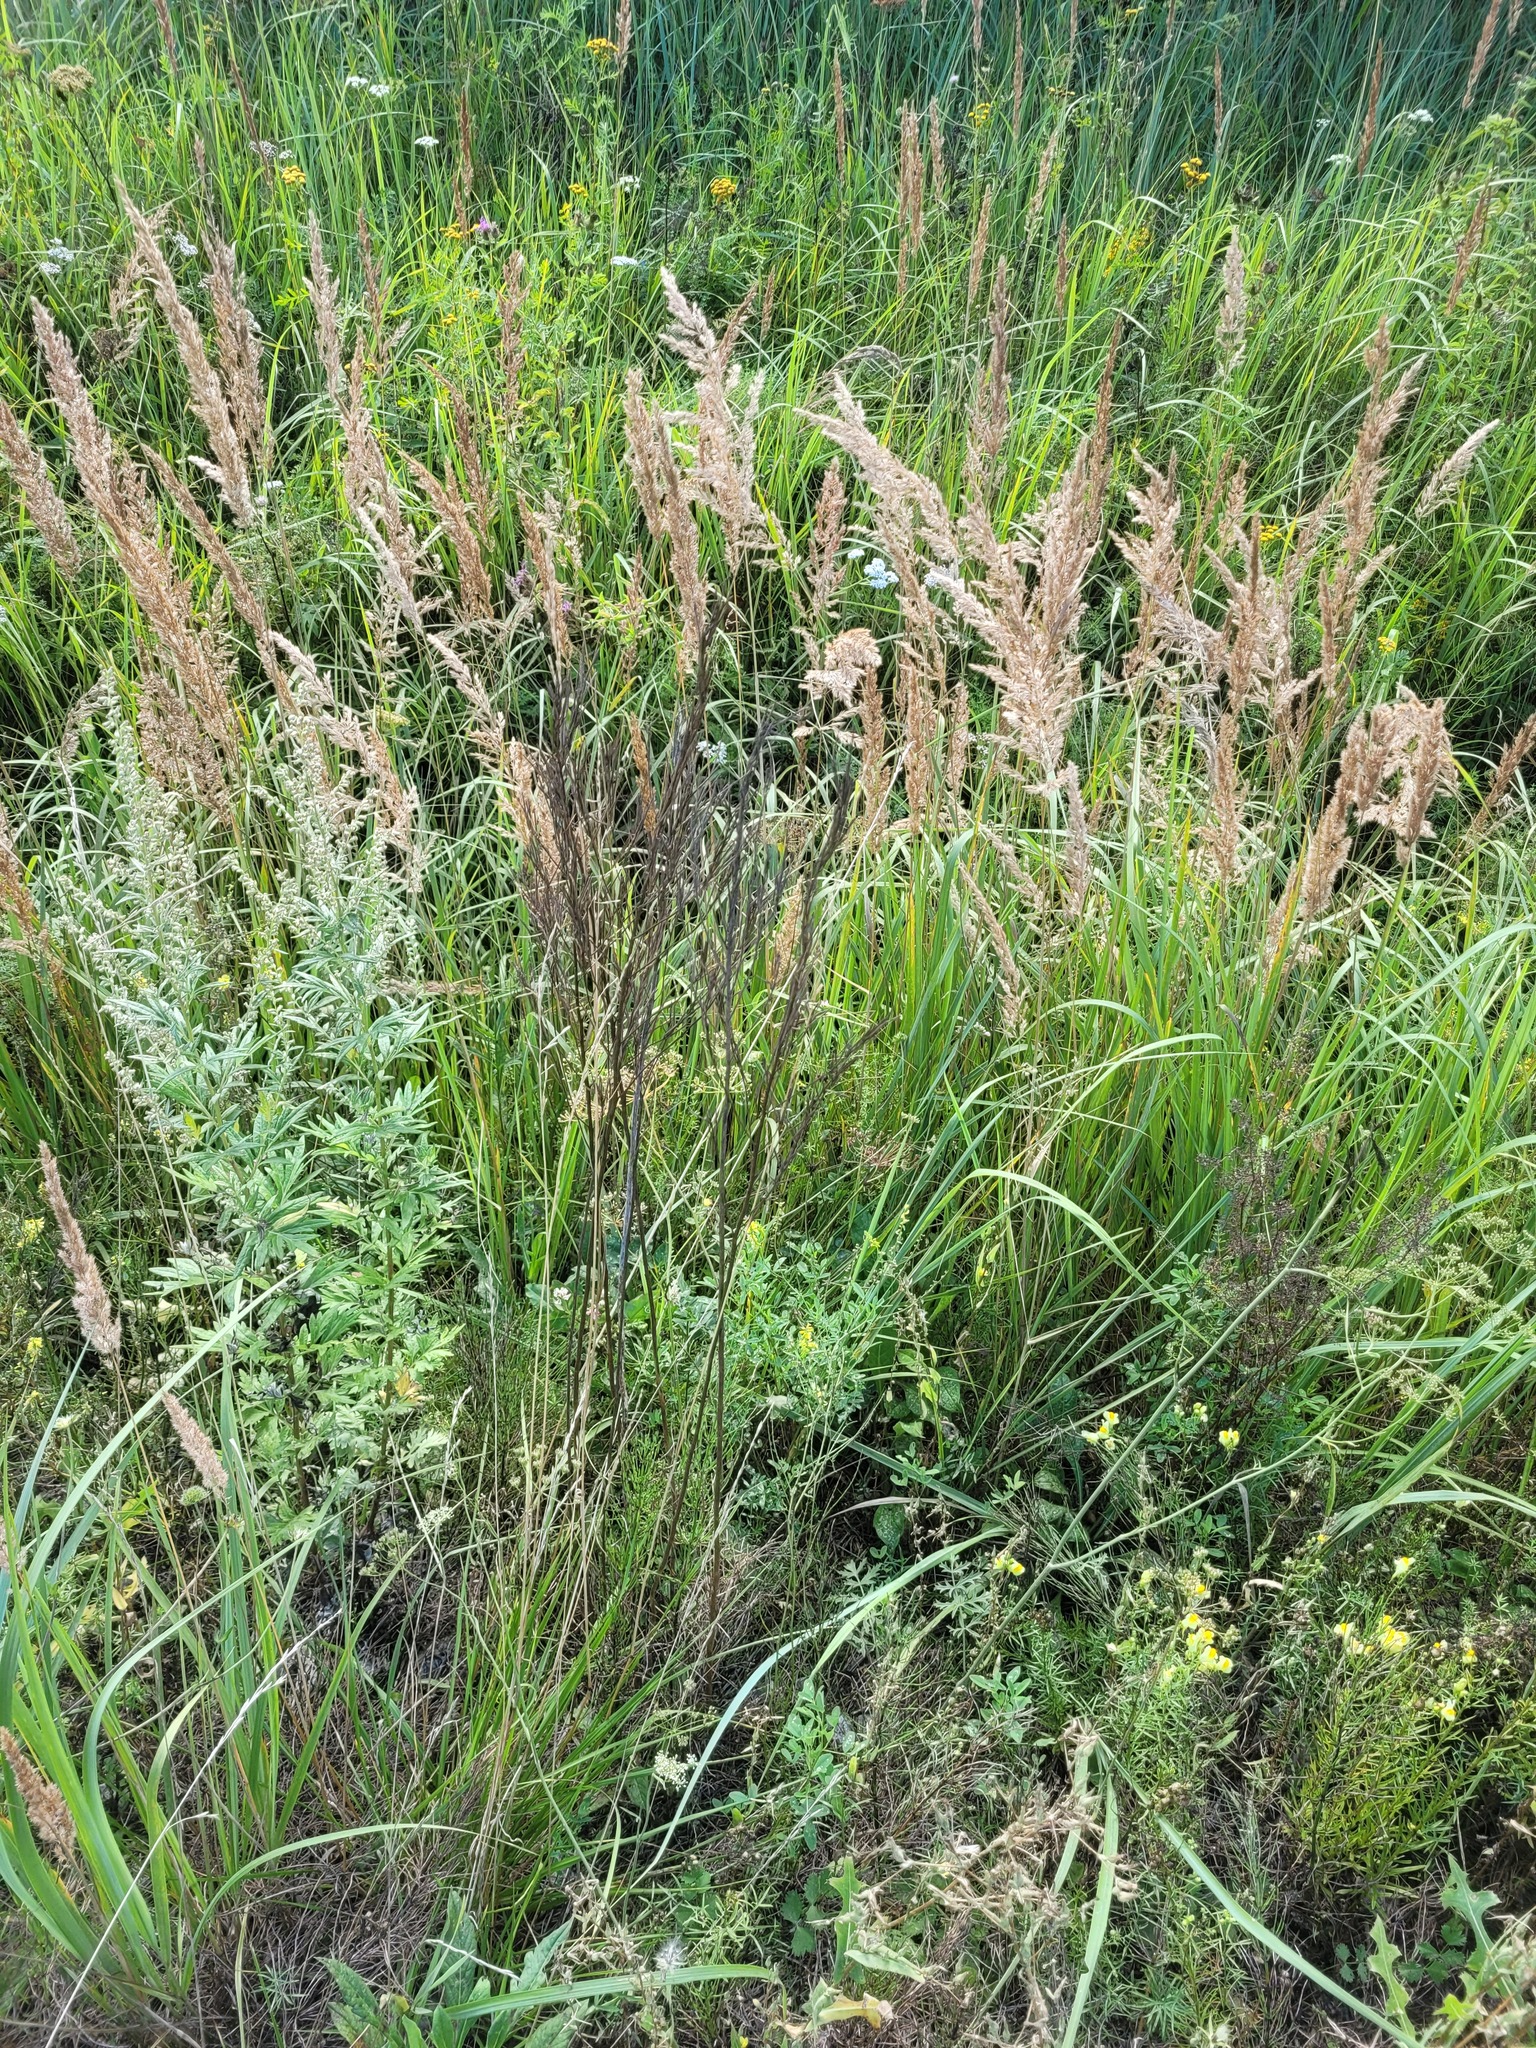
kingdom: Plantae
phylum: Tracheophyta
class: Magnoliopsida
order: Brassicales
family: Brassicaceae
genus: Erysimum
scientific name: Erysimum hieraciifolium
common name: European wallflower
